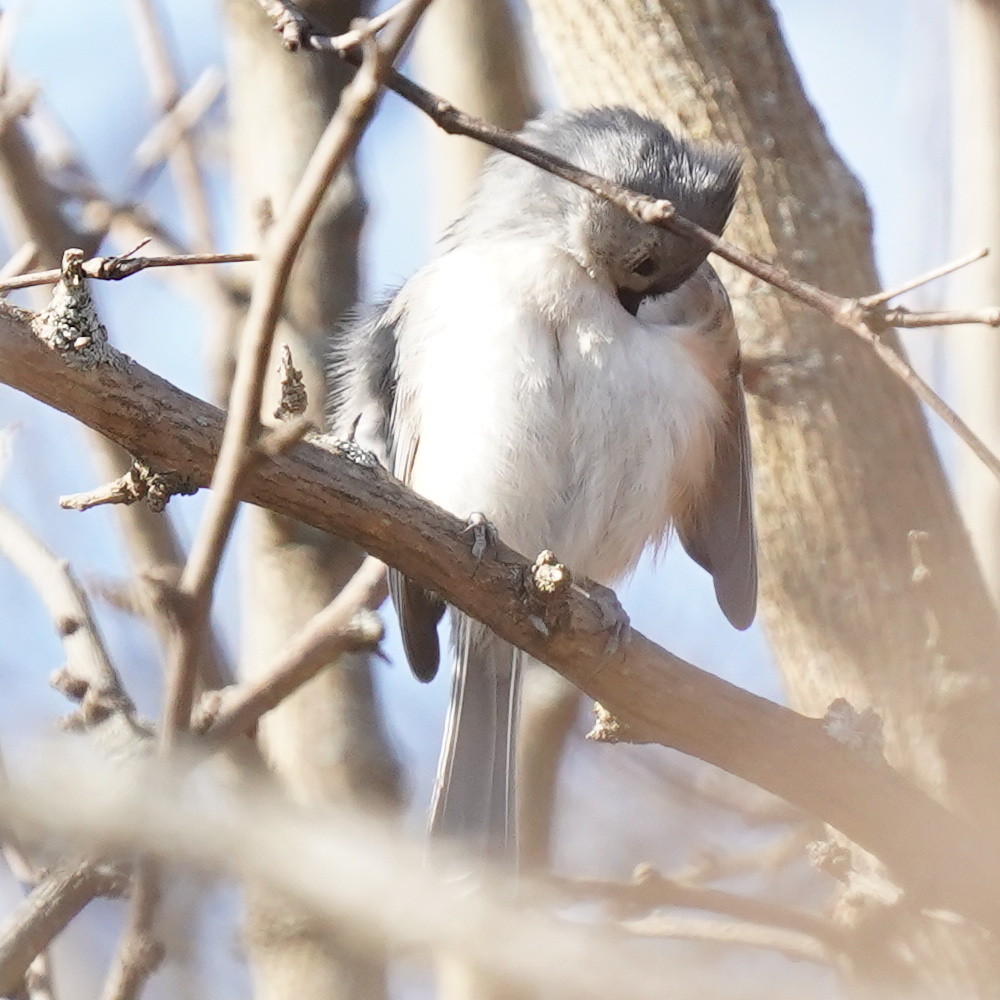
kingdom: Animalia
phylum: Chordata
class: Aves
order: Passeriformes
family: Paridae
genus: Baeolophus
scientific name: Baeolophus bicolor
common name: Tufted titmouse
